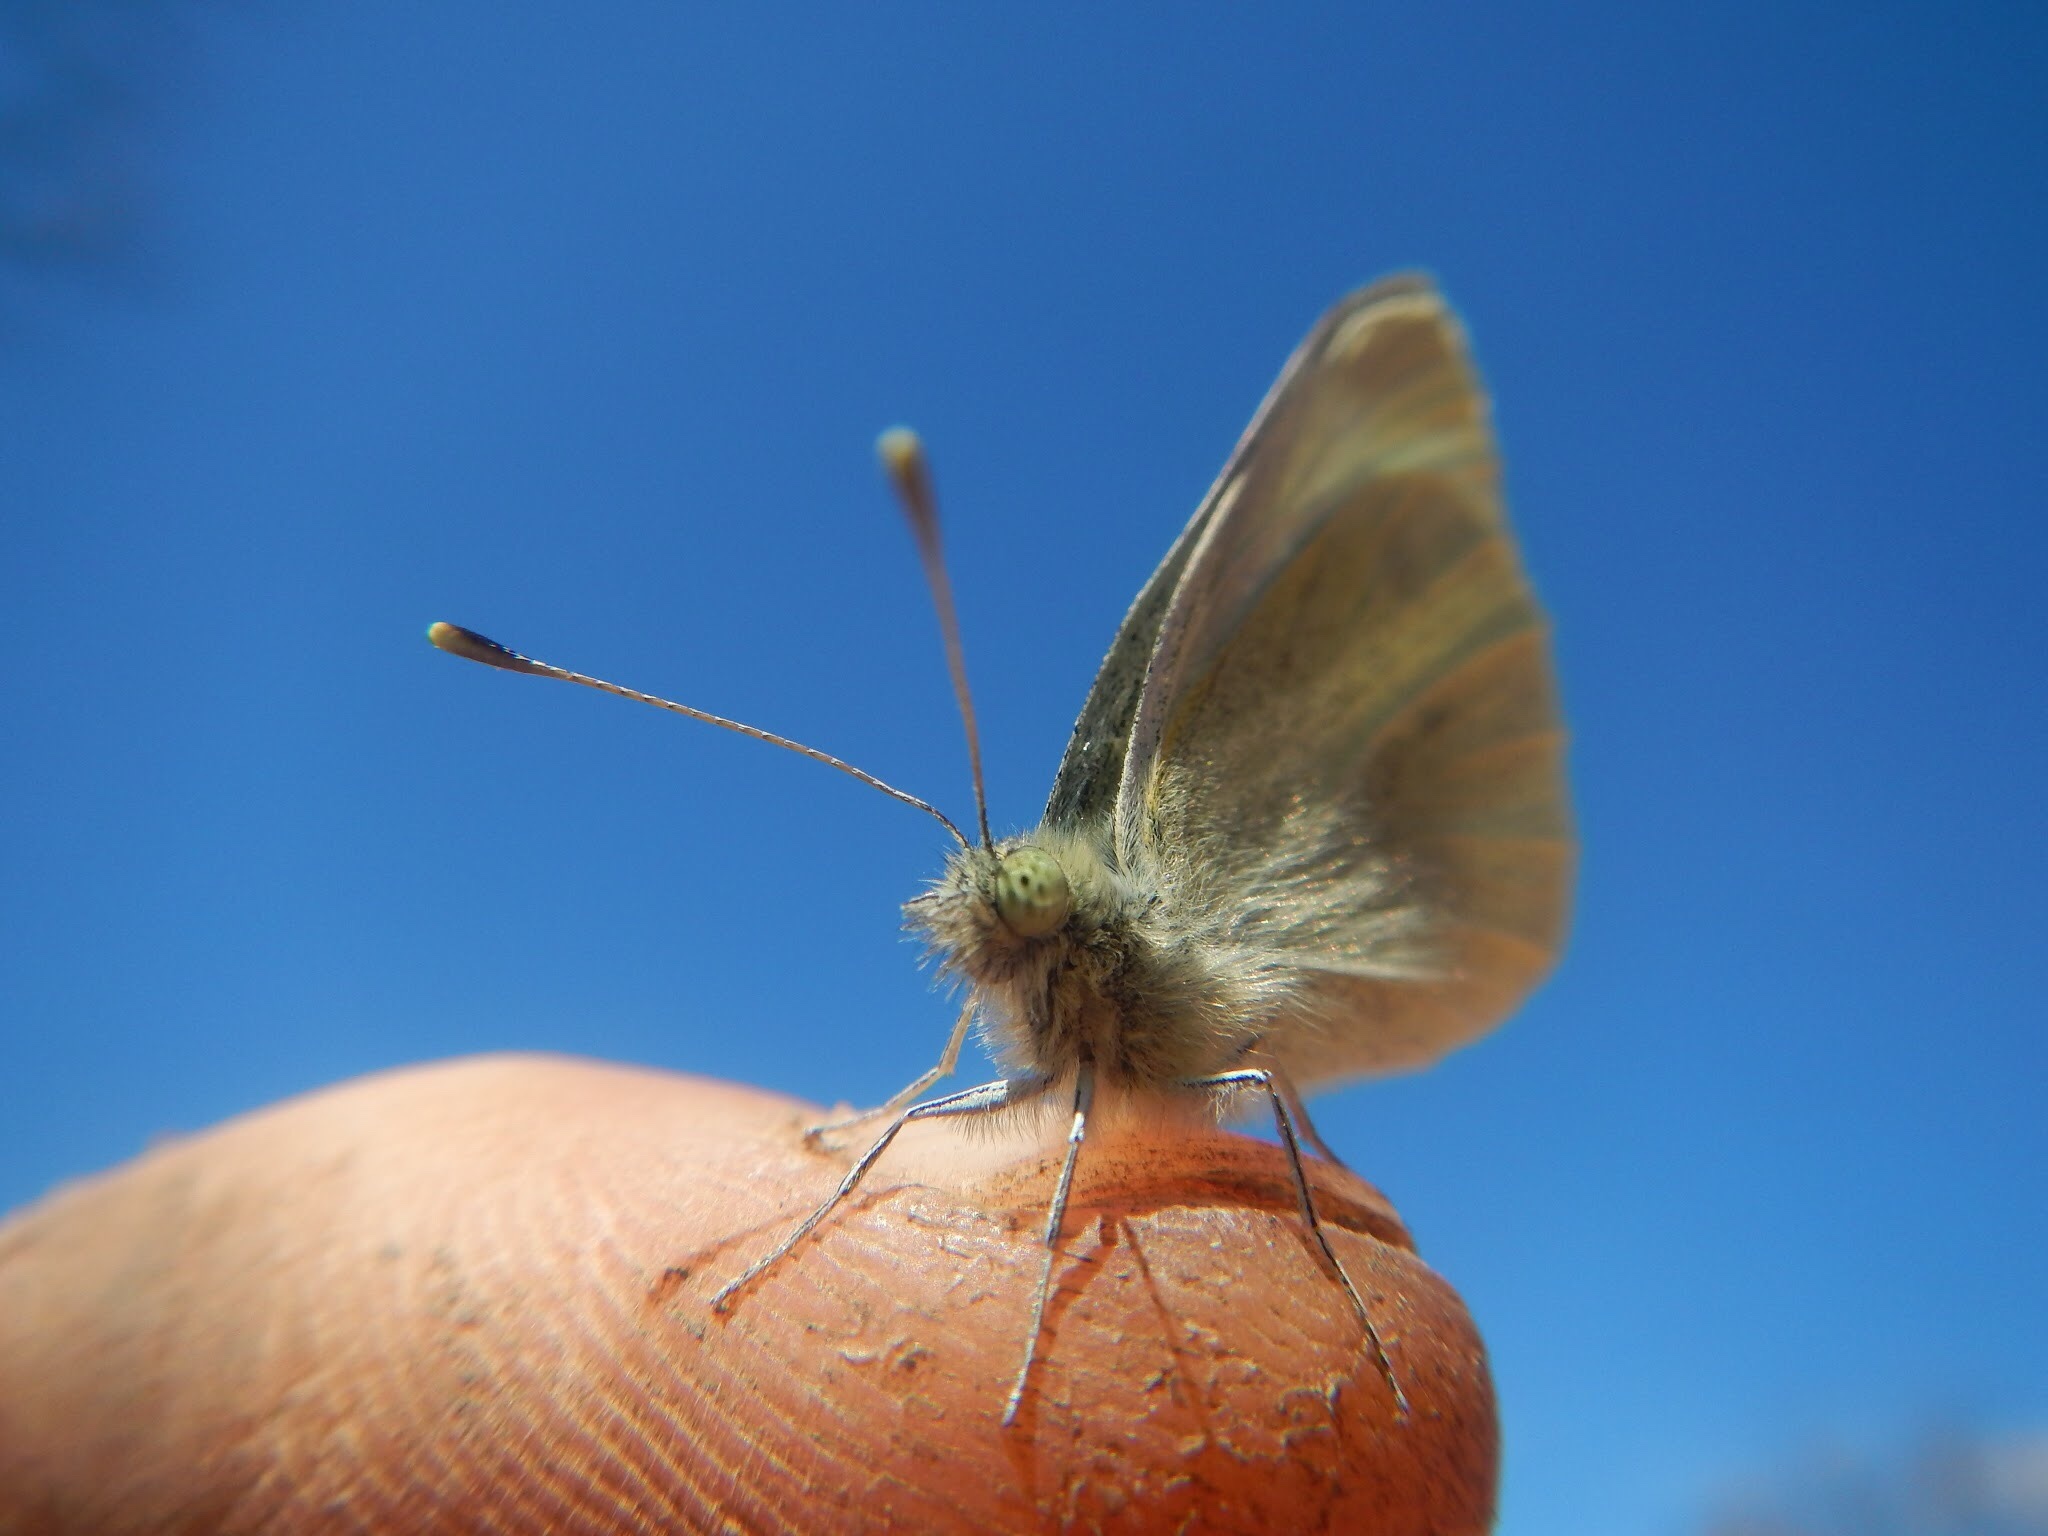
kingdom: Animalia
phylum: Arthropoda
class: Insecta
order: Lepidoptera
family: Pieridae
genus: Pieris
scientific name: Pieris rapae
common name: Small white
